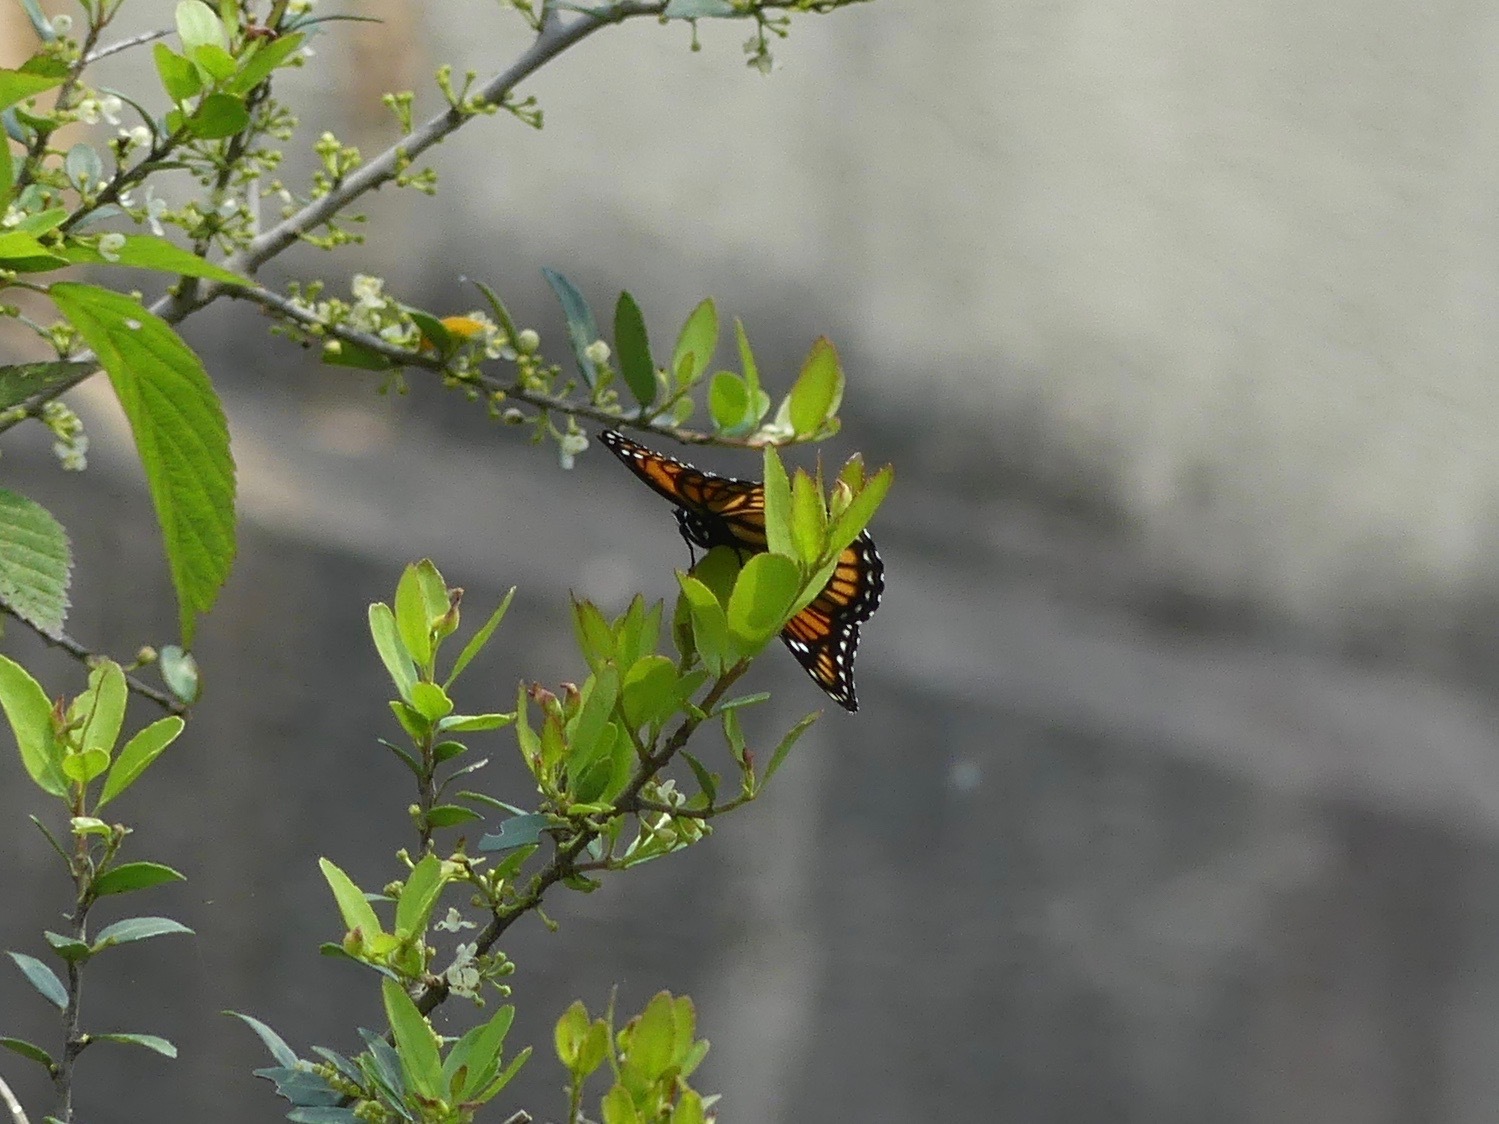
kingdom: Animalia
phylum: Arthropoda
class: Insecta
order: Lepidoptera
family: Nymphalidae
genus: Limenitis
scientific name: Limenitis archippus
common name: Viceroy
